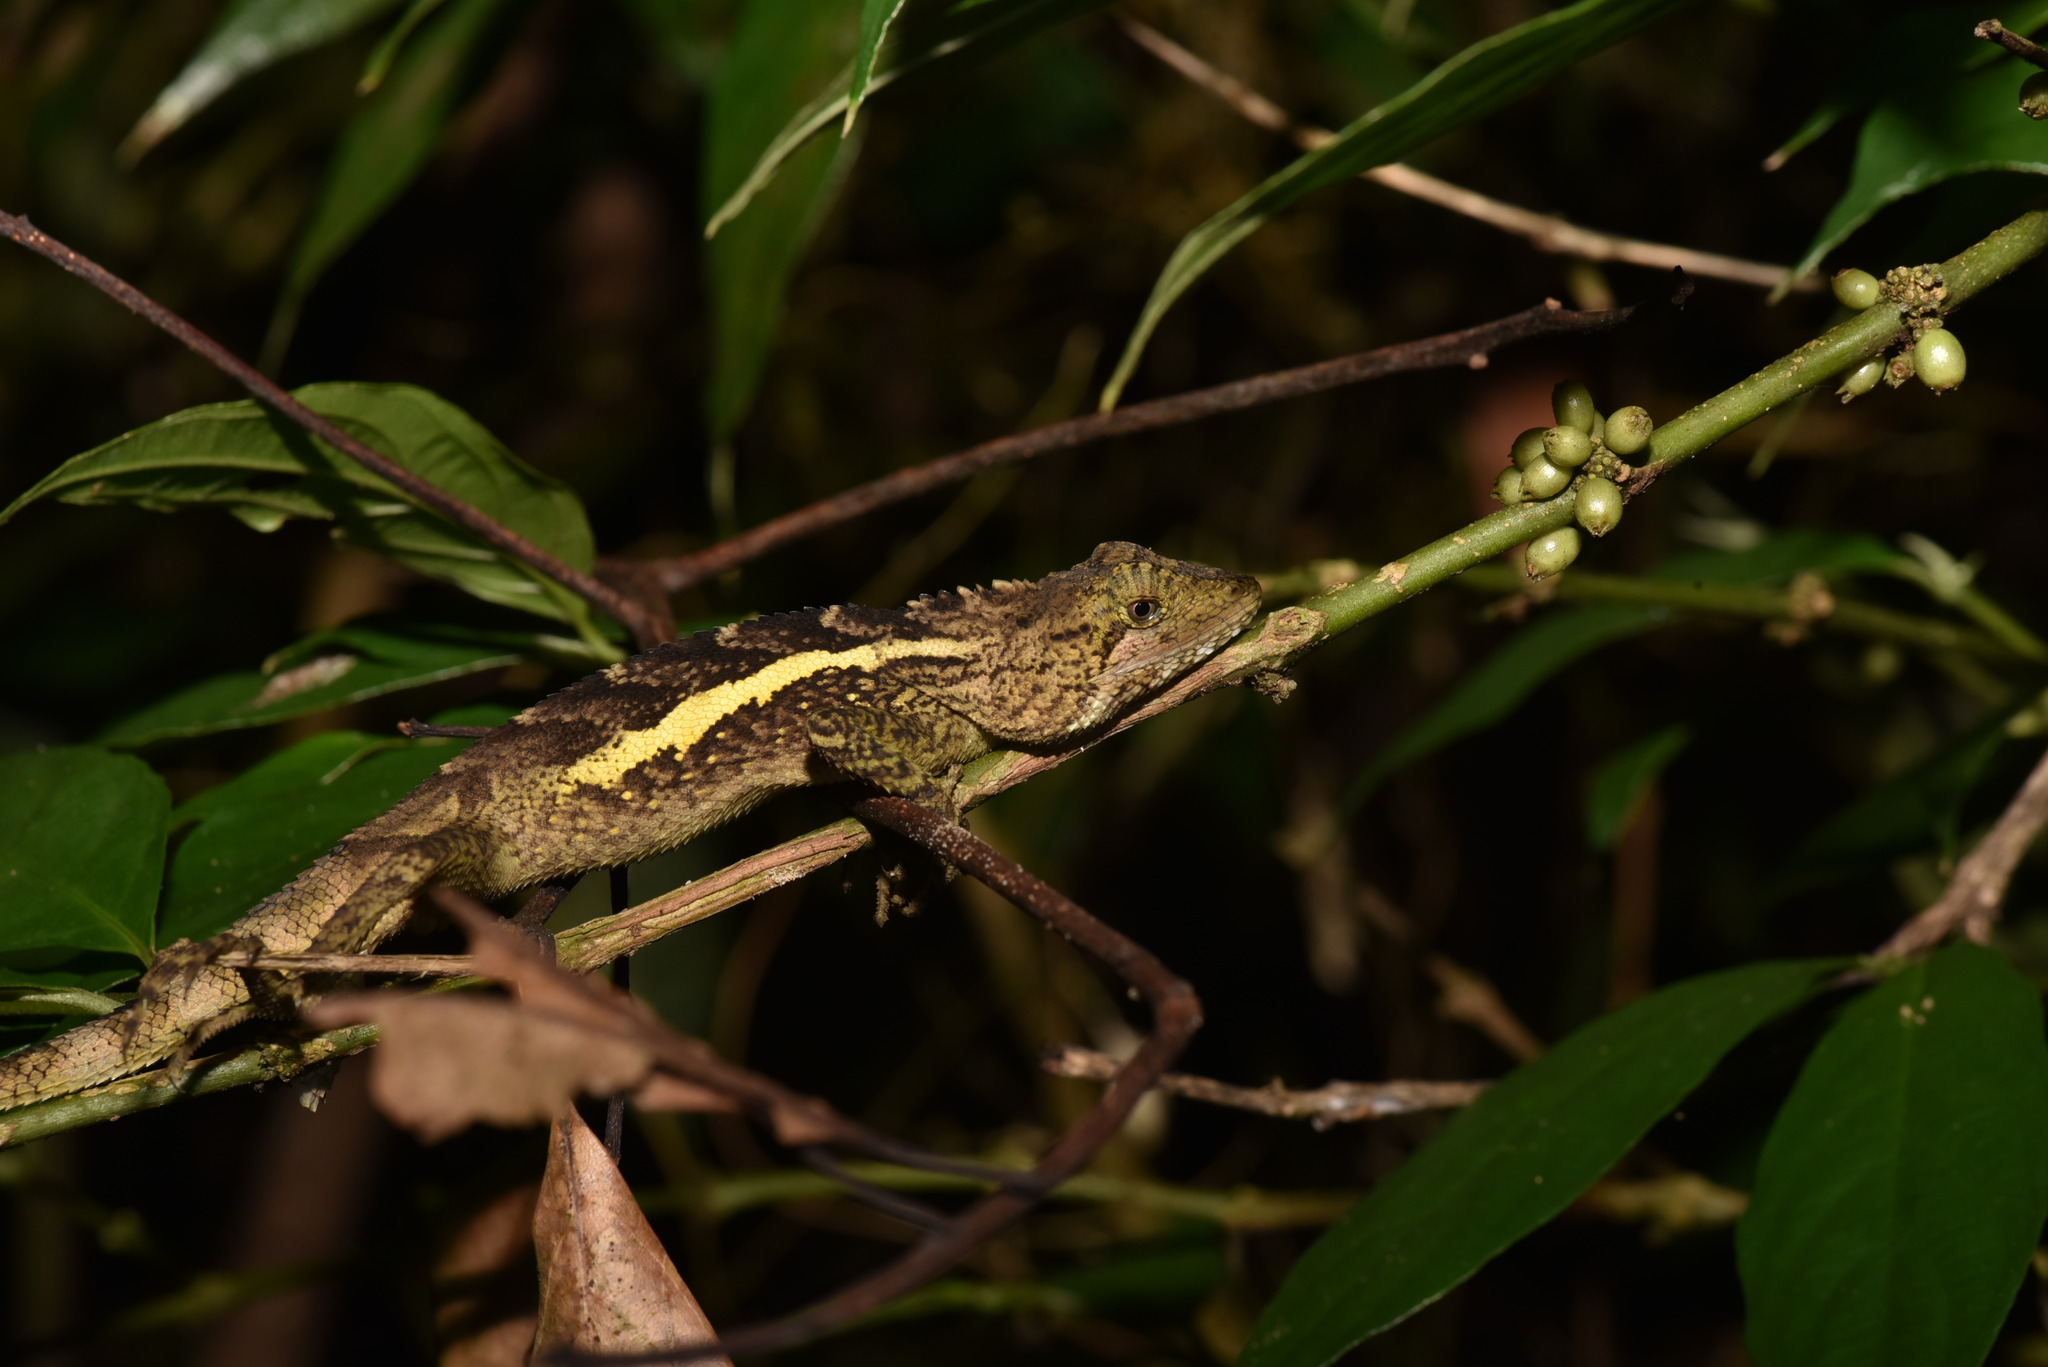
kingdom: Animalia
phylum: Chordata
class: Squamata
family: Agamidae
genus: Diploderma
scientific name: Diploderma swinhonis
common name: Taiwan japalure
